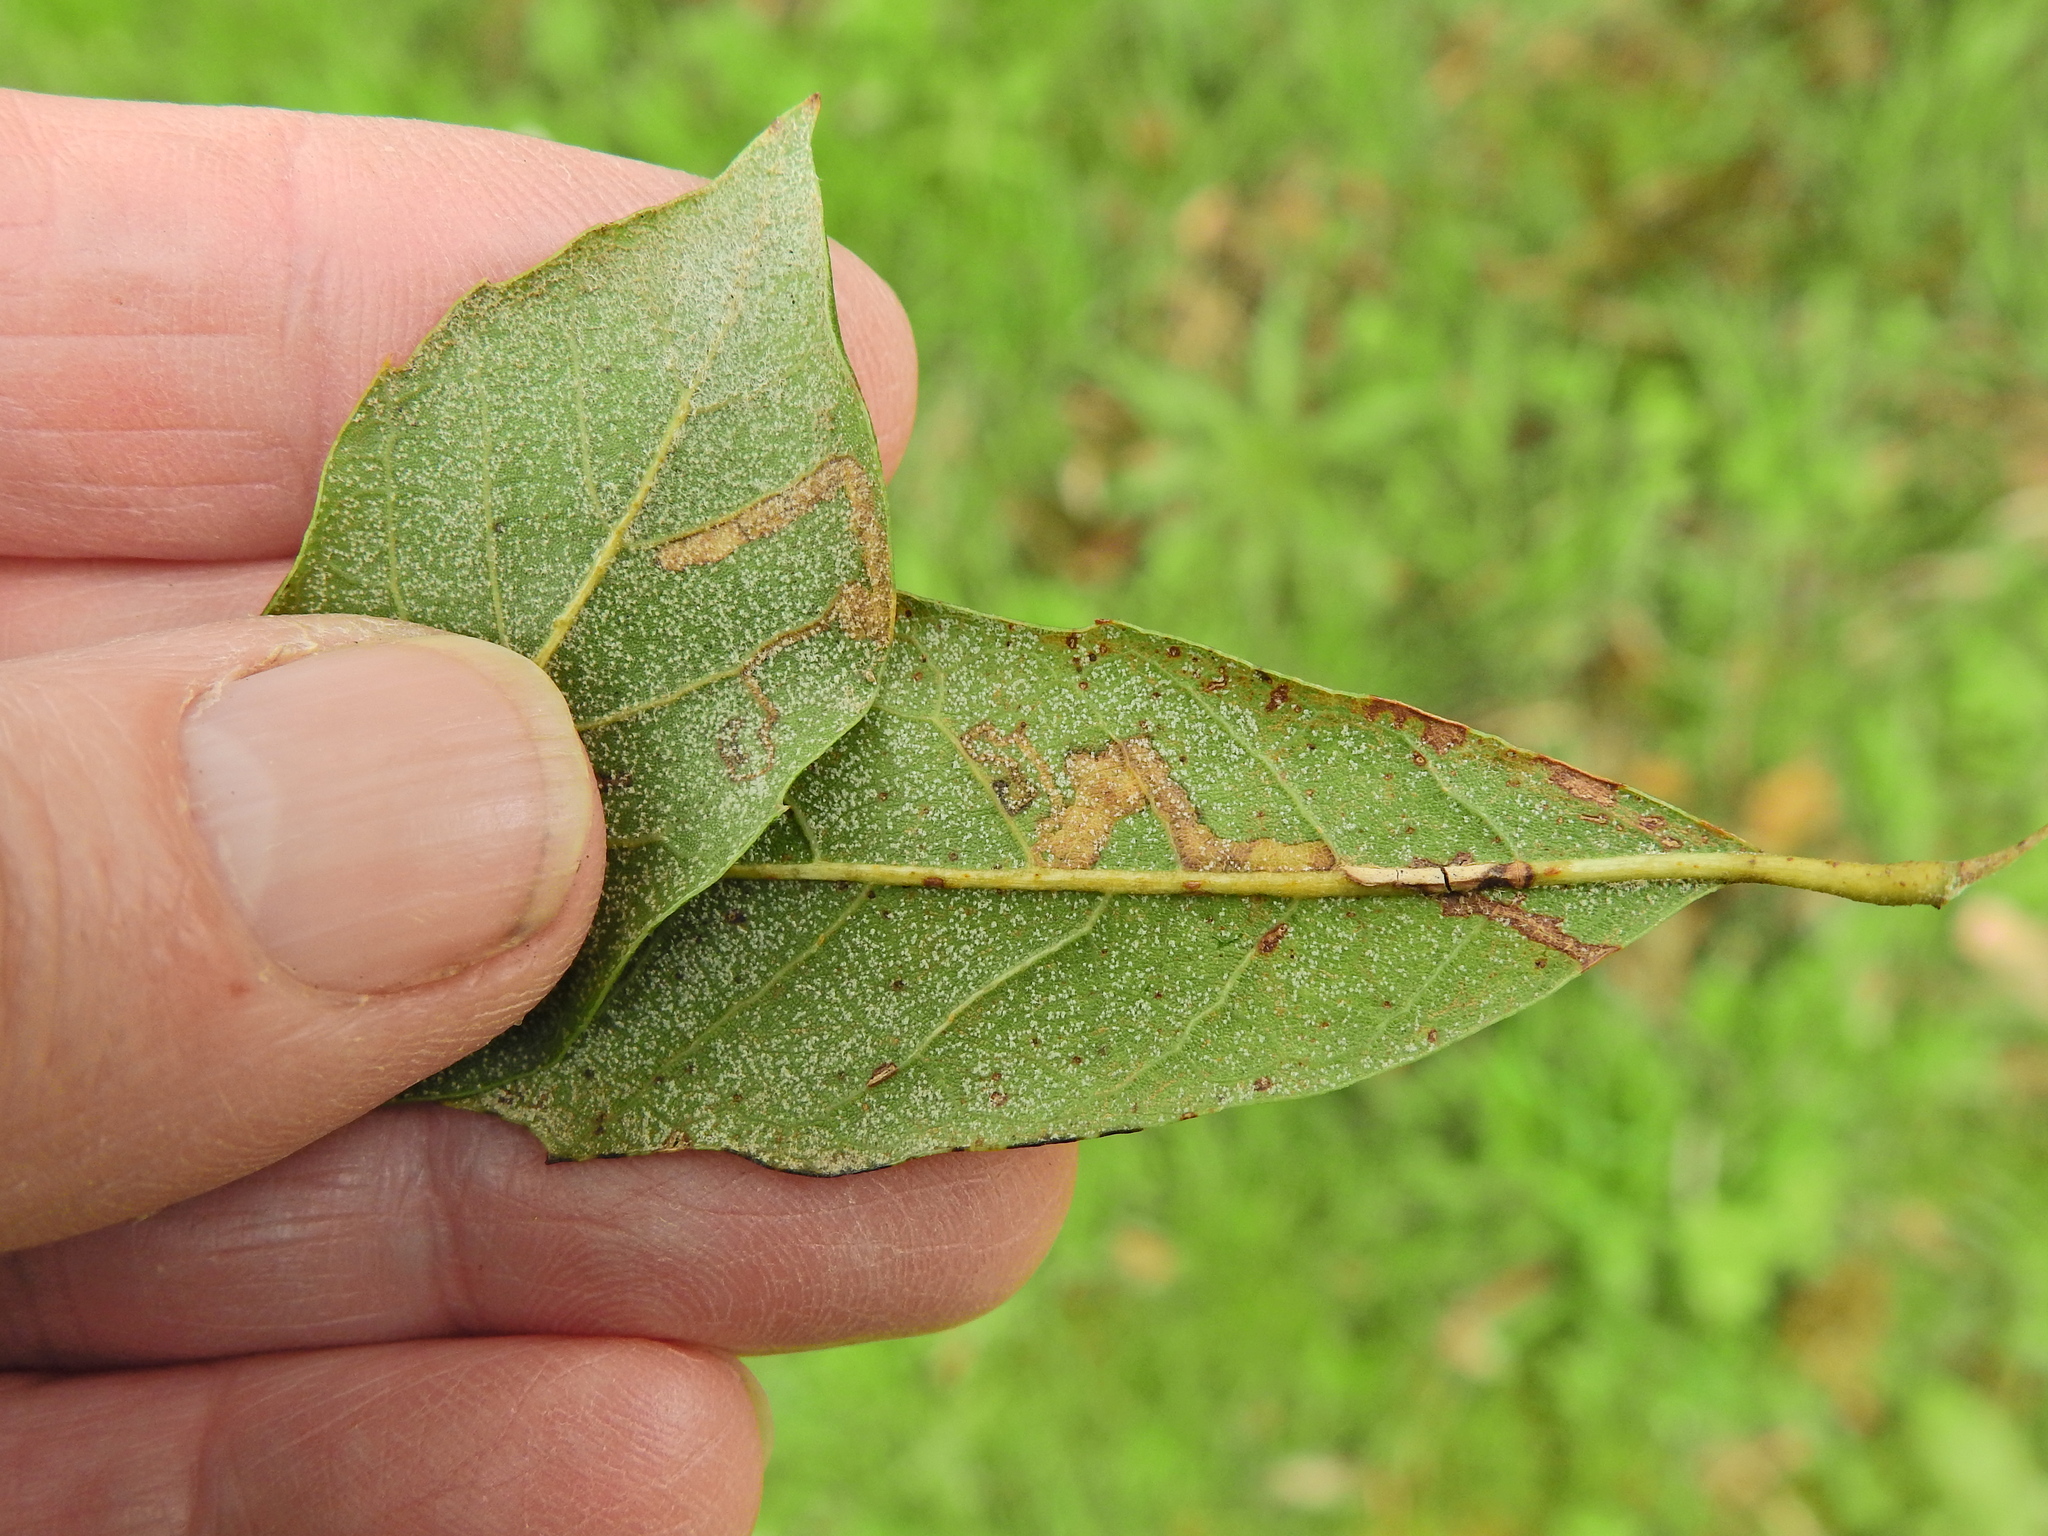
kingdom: Animalia
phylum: Arthropoda
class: Insecta
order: Lepidoptera
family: Nepticulidae
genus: Ectoedemia
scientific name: Ectoedemia heringella
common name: New holm-oak pigmy
